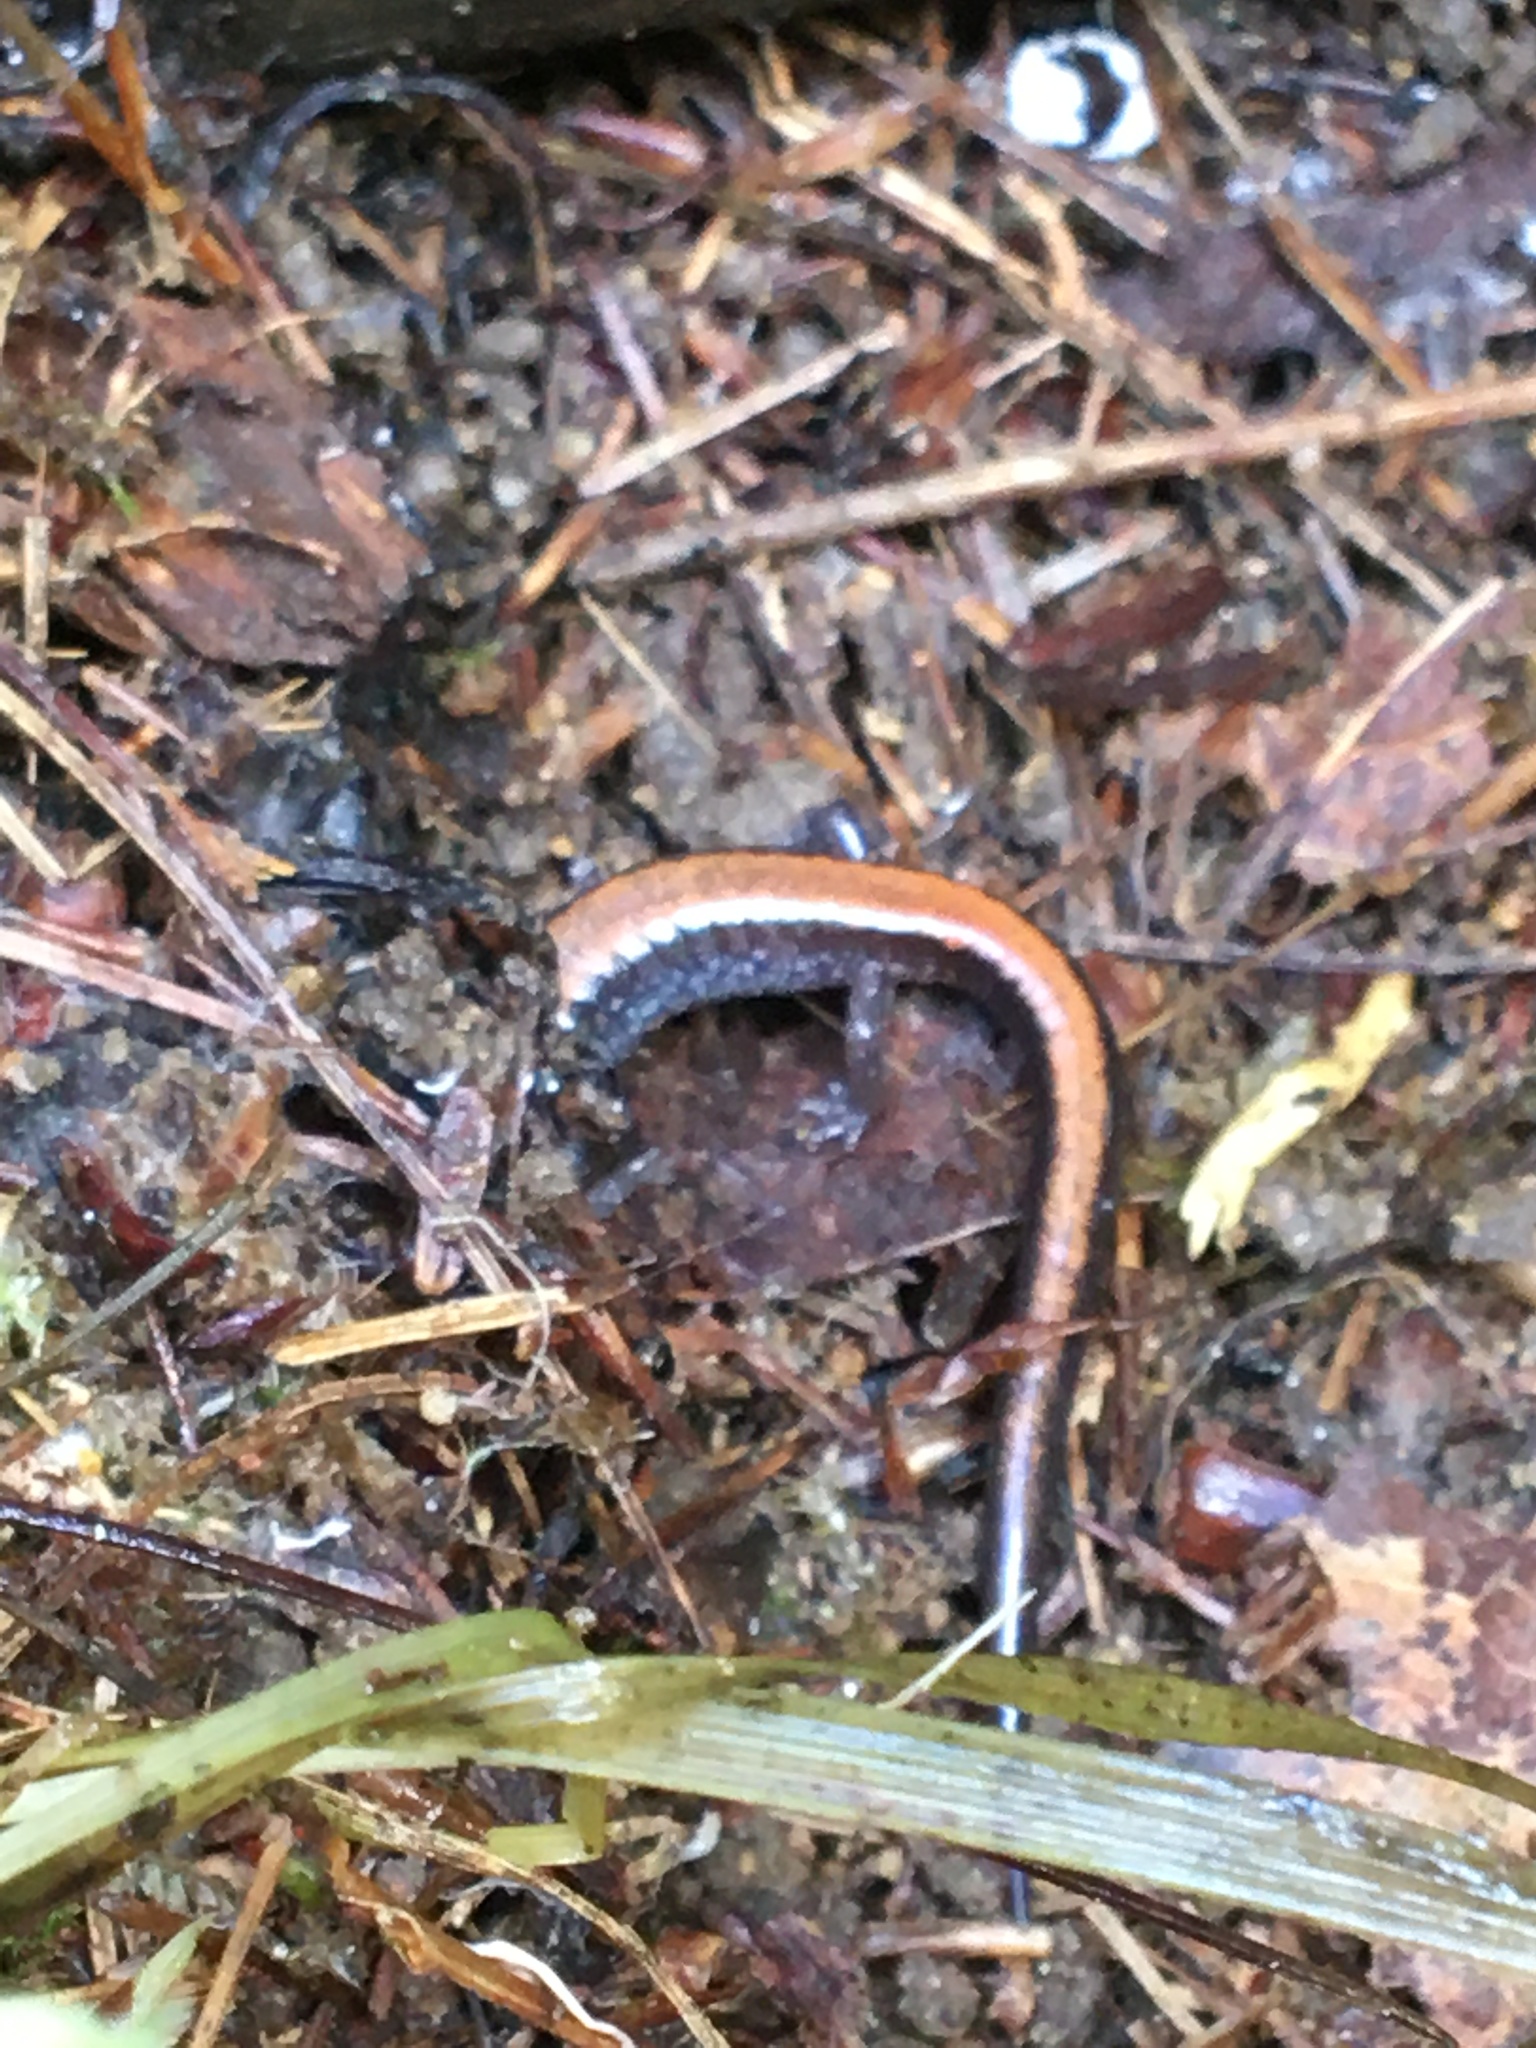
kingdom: Animalia
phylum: Chordata
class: Amphibia
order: Caudata
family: Plethodontidae
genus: Plethodon
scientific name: Plethodon cinereus
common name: Redback salamander
